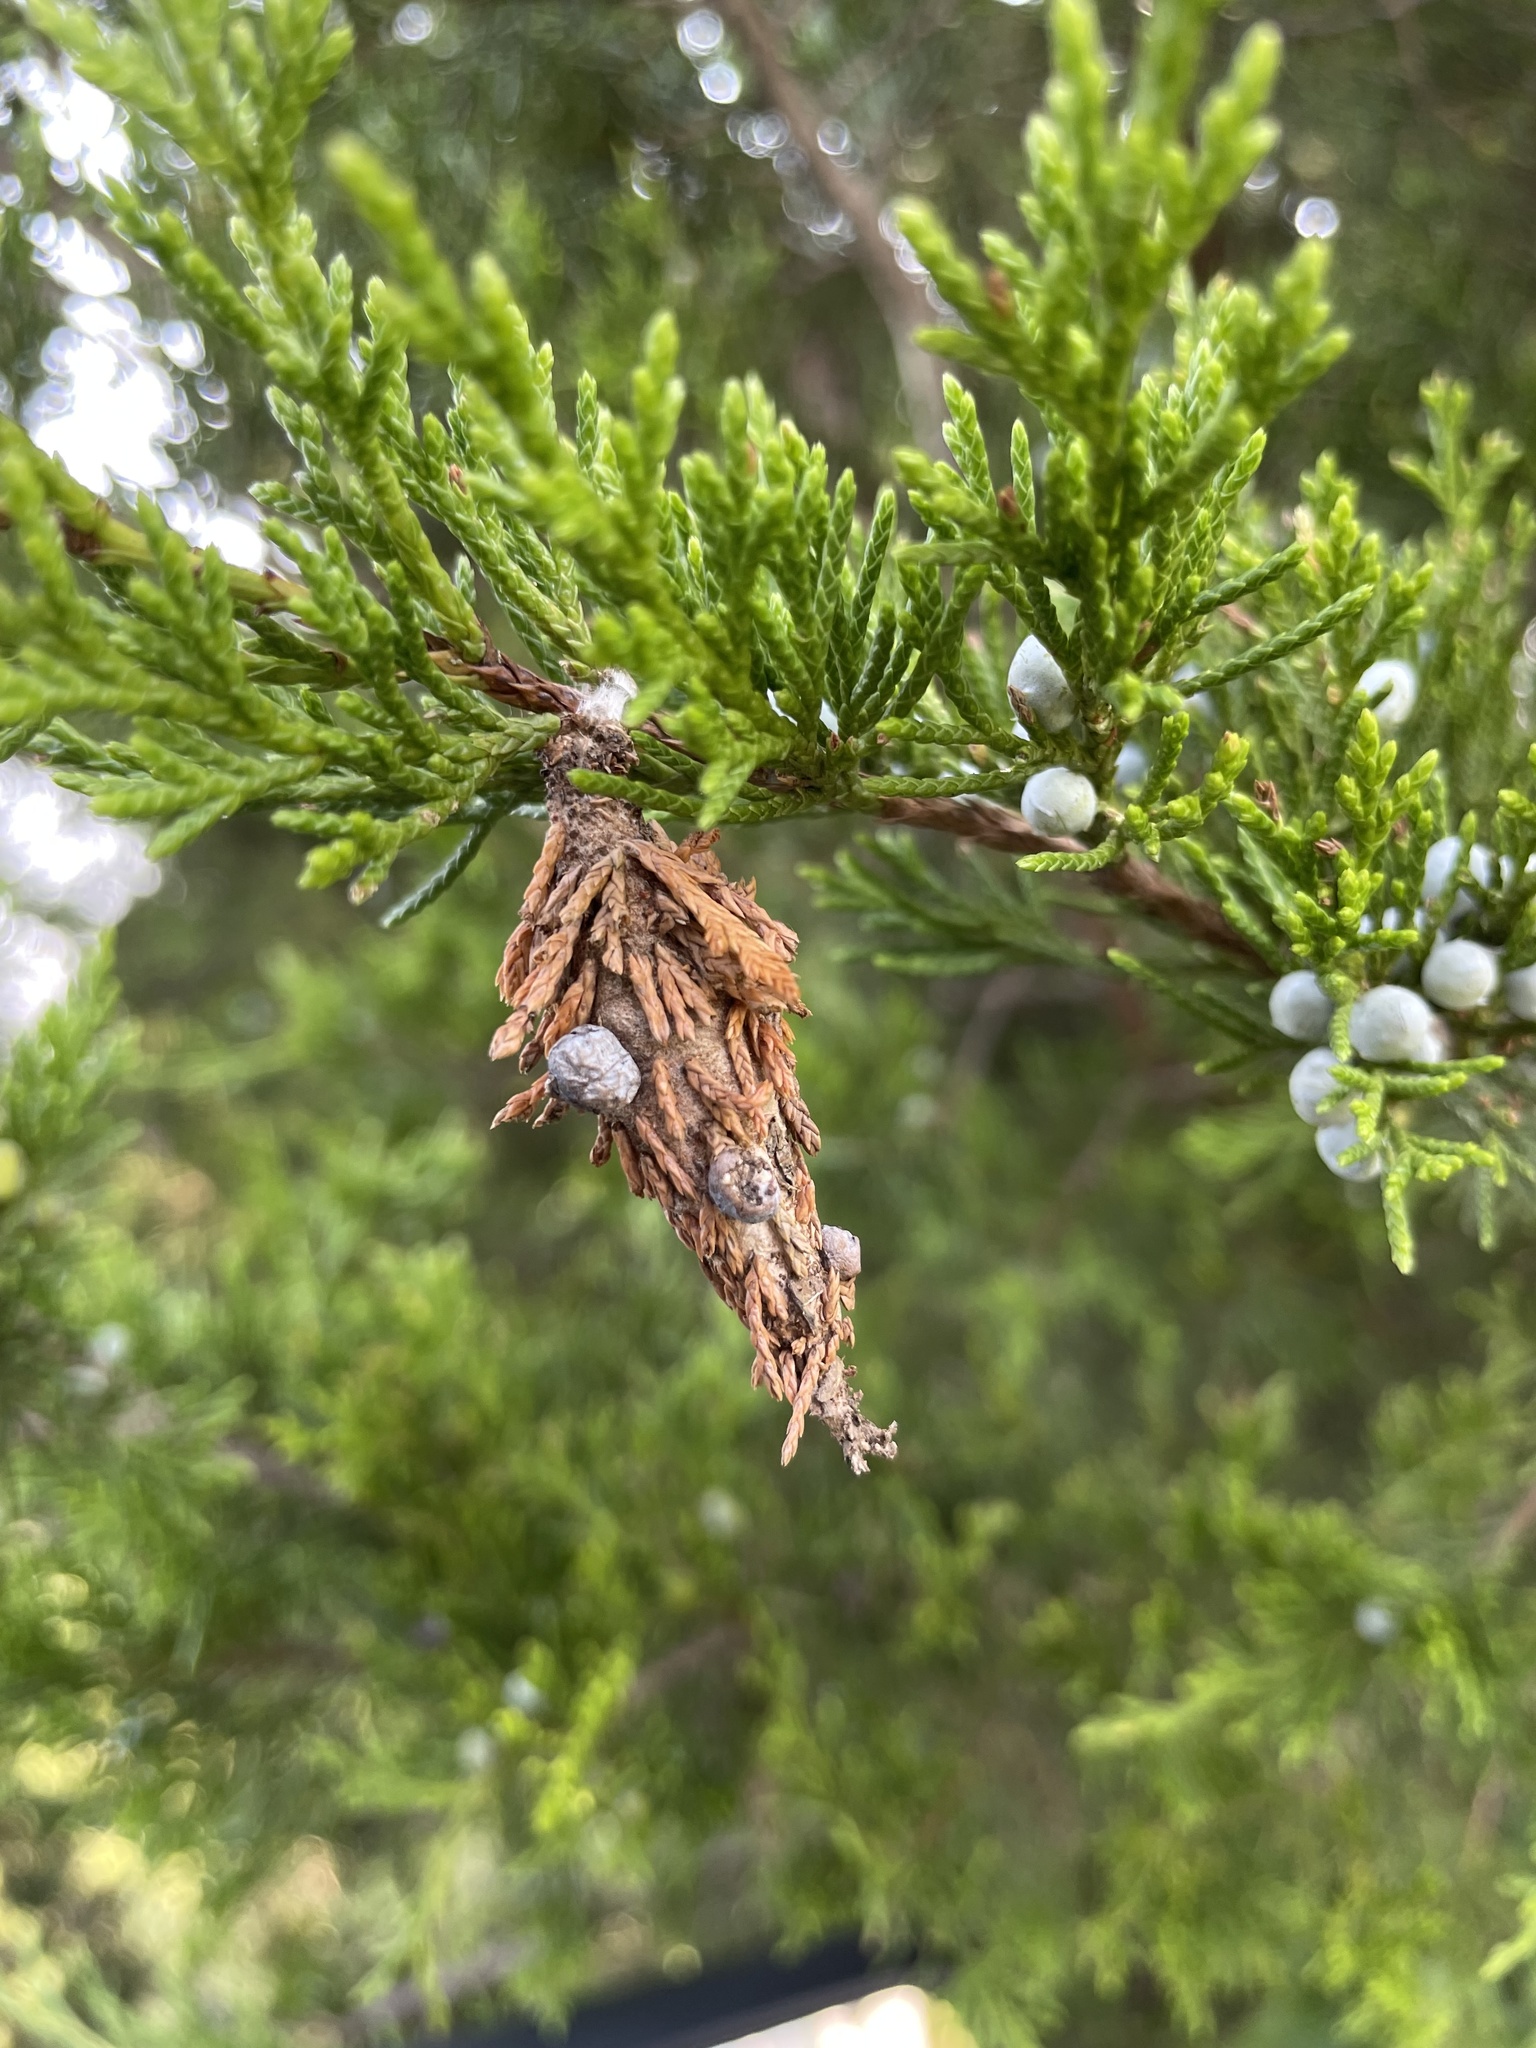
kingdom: Animalia
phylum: Arthropoda
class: Insecta
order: Lepidoptera
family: Psychidae
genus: Thyridopteryx
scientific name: Thyridopteryx ephemeraeformis
